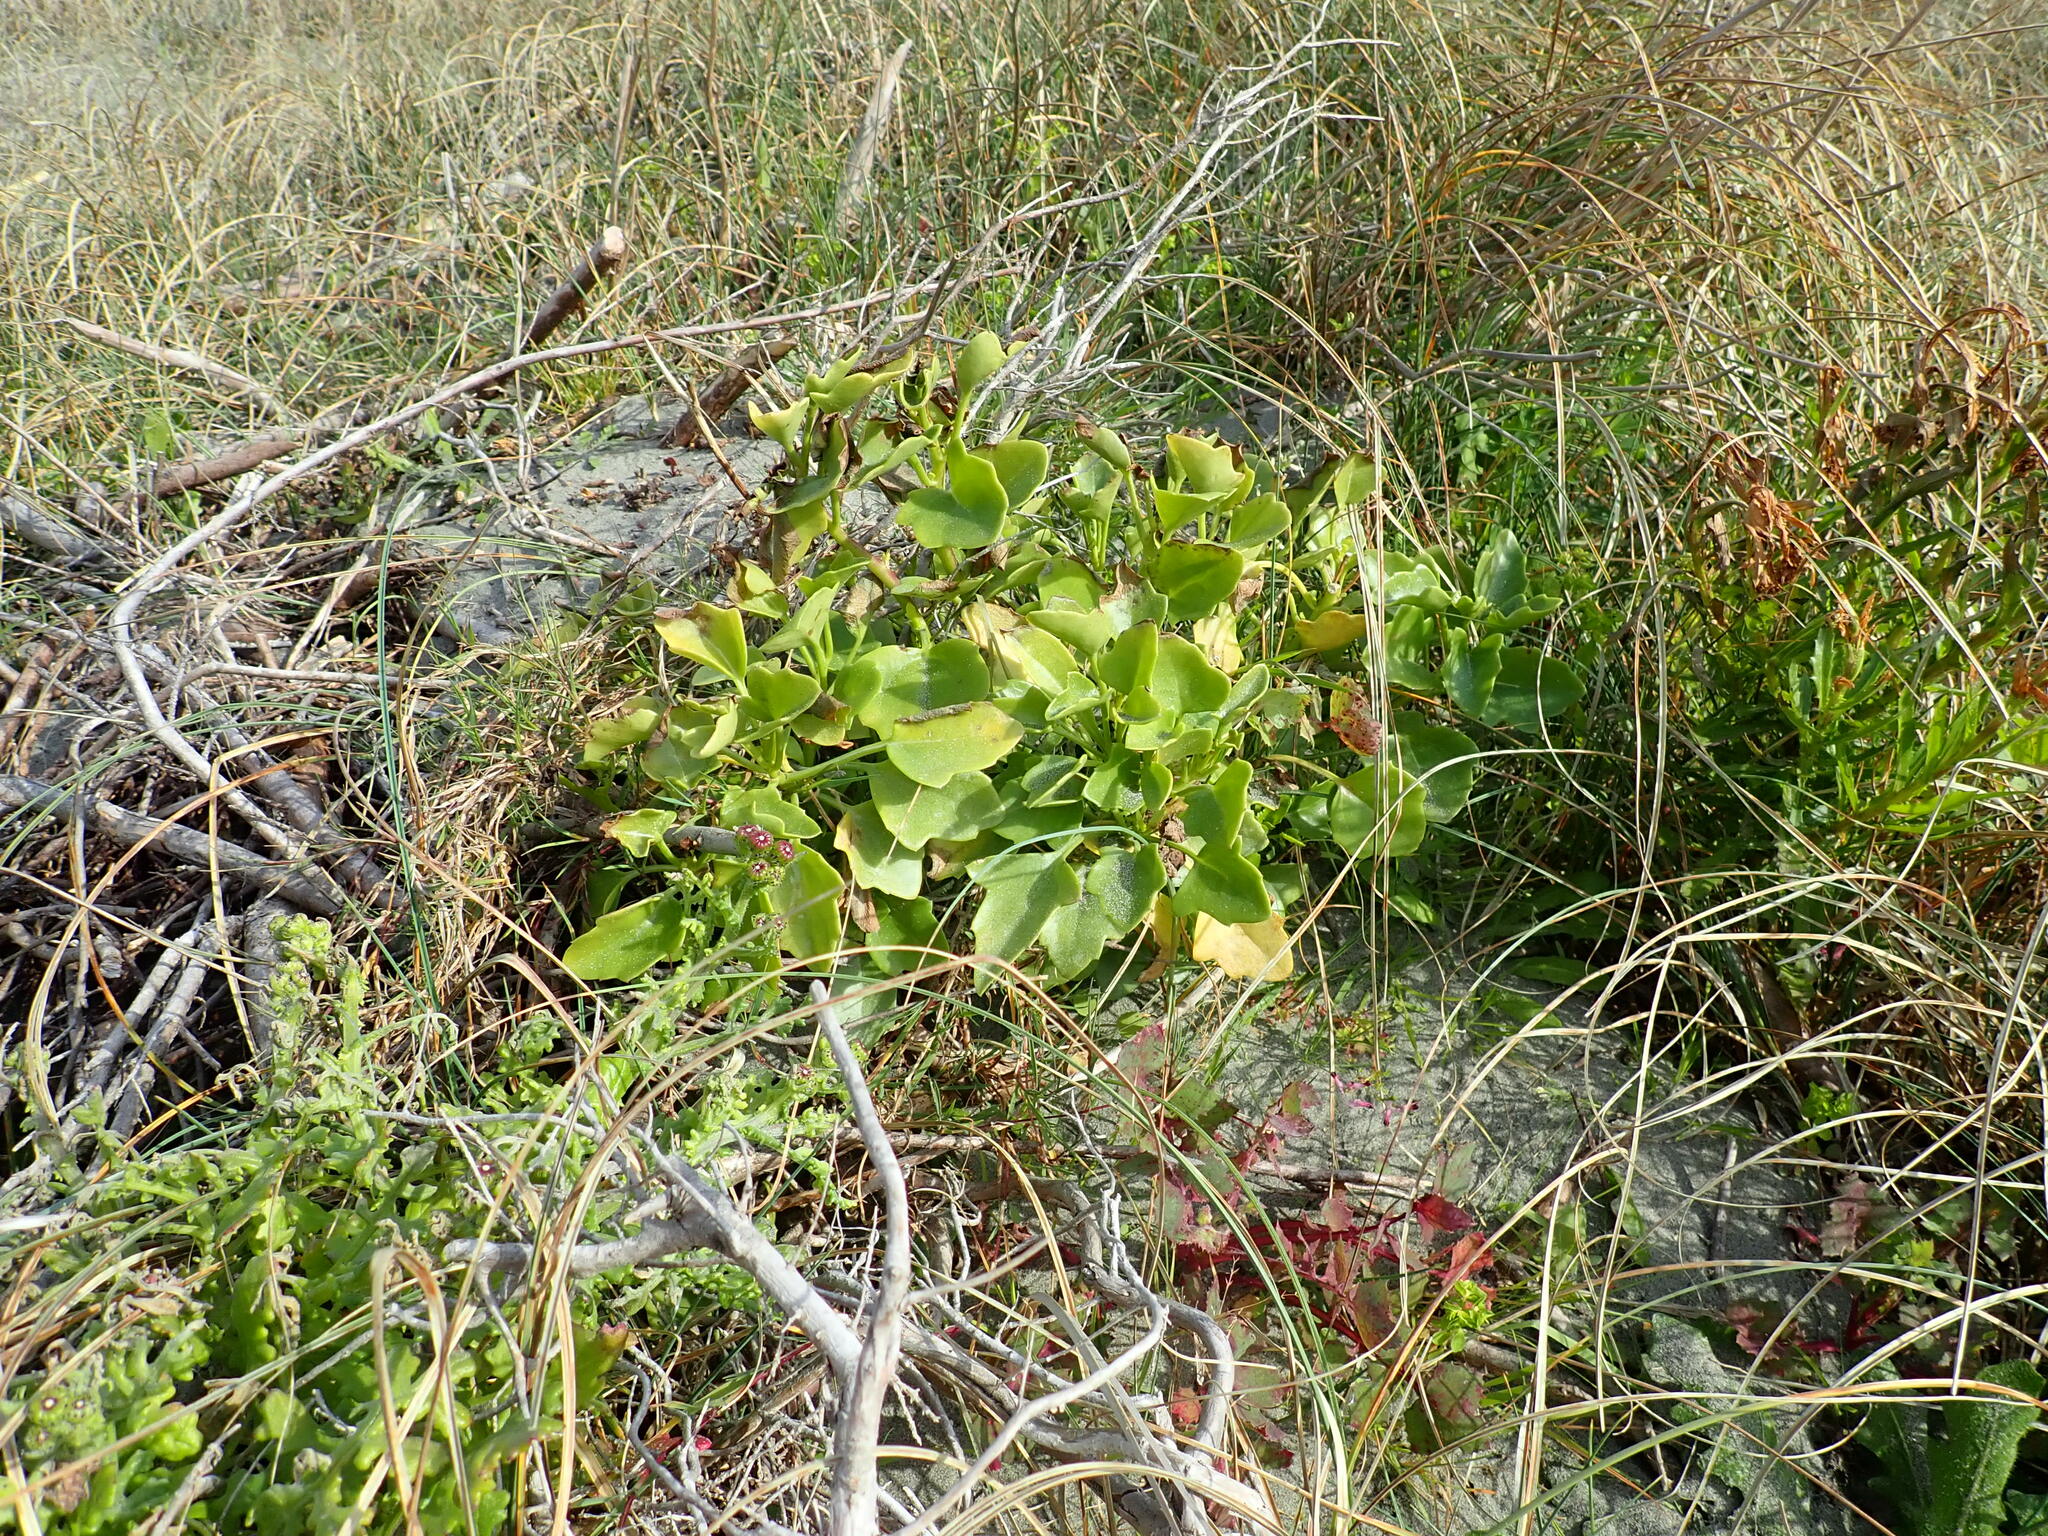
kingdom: Plantae
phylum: Tracheophyta
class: Magnoliopsida
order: Asterales
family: Asteraceae
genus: Senecio
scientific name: Senecio angulatus
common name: Climbing groundsel
